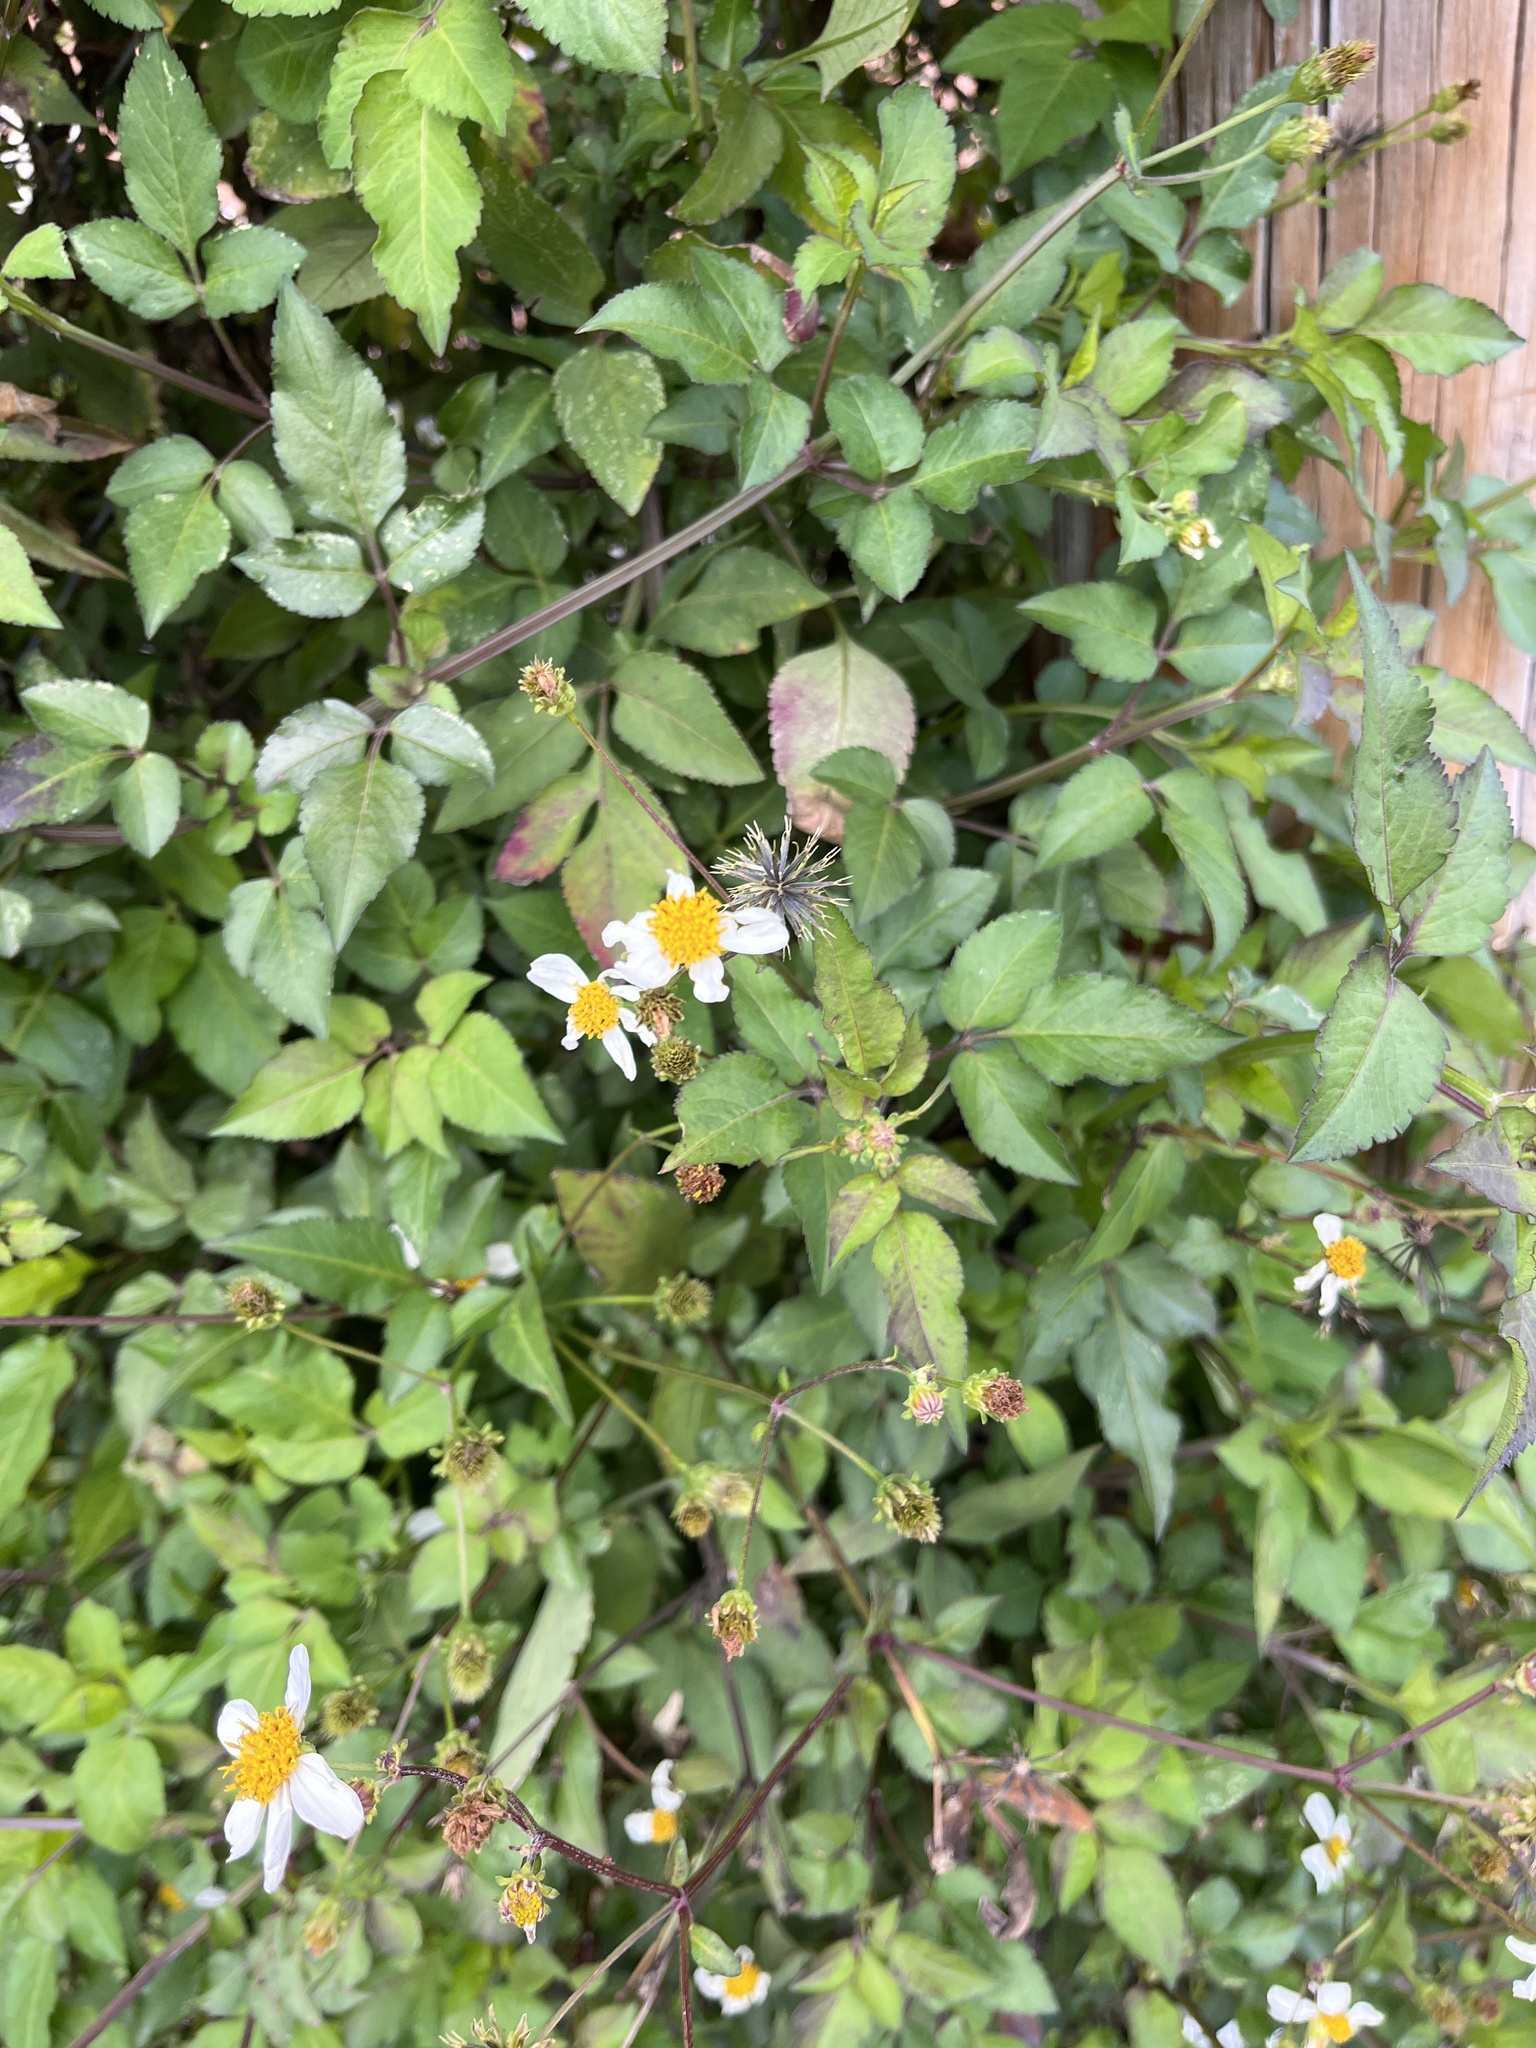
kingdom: Plantae
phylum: Tracheophyta
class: Magnoliopsida
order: Asterales
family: Asteraceae
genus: Bidens
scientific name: Bidens alba
